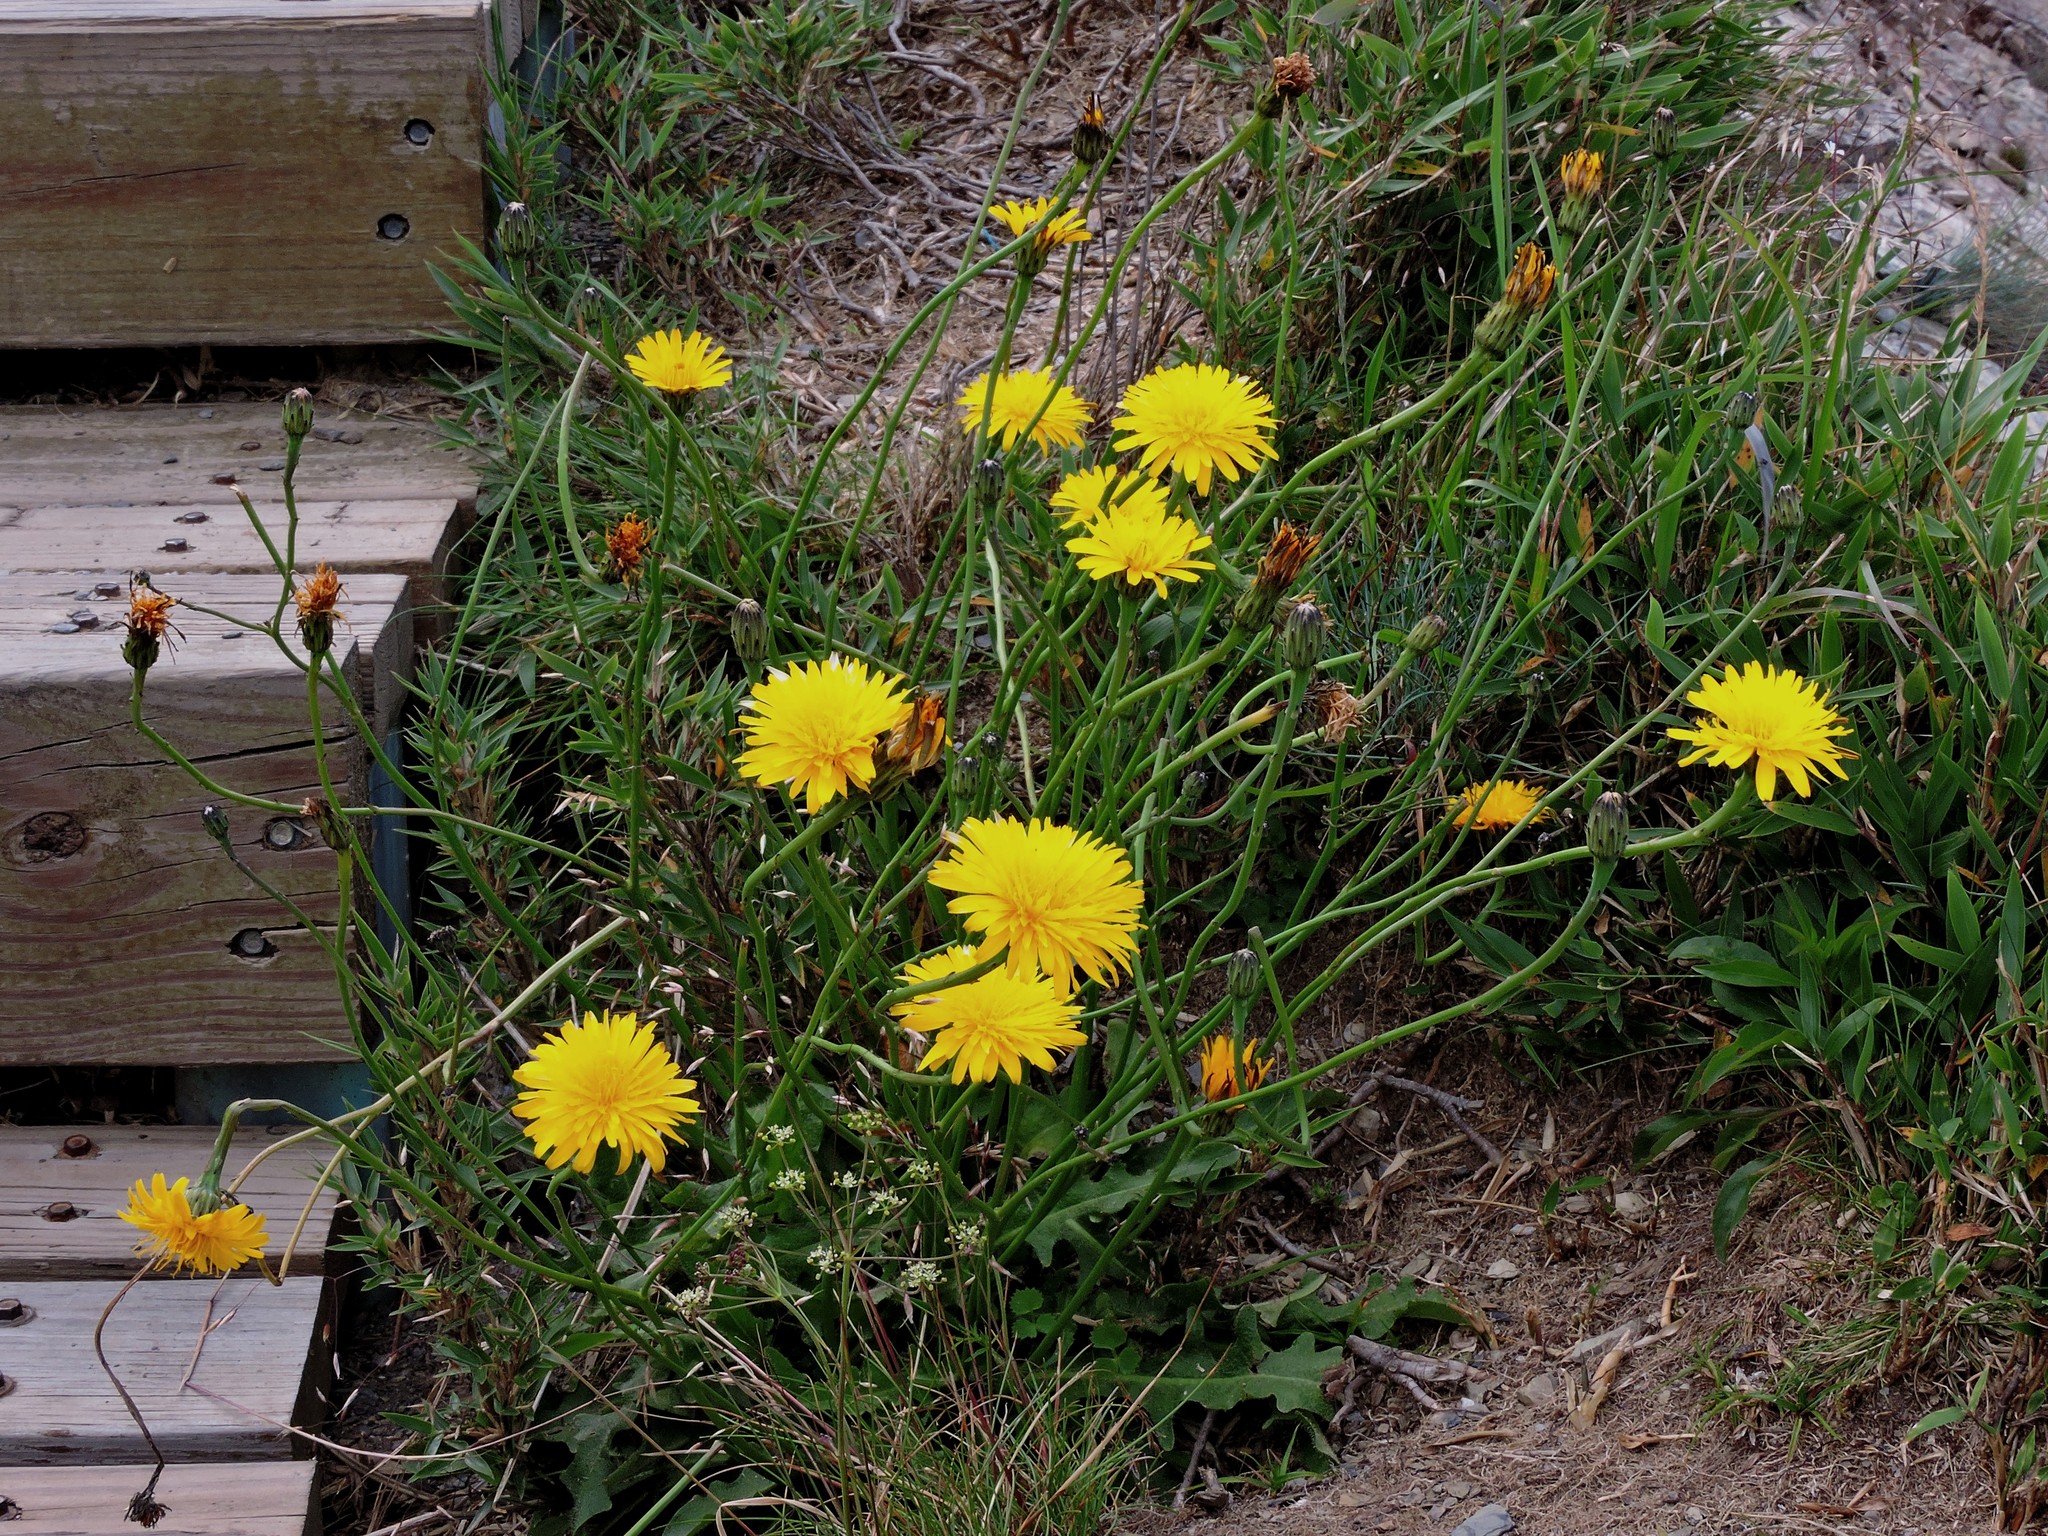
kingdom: Plantae
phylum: Tracheophyta
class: Magnoliopsida
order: Asterales
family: Asteraceae
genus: Hypochaeris
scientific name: Hypochaeris radicata
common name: Flatweed
